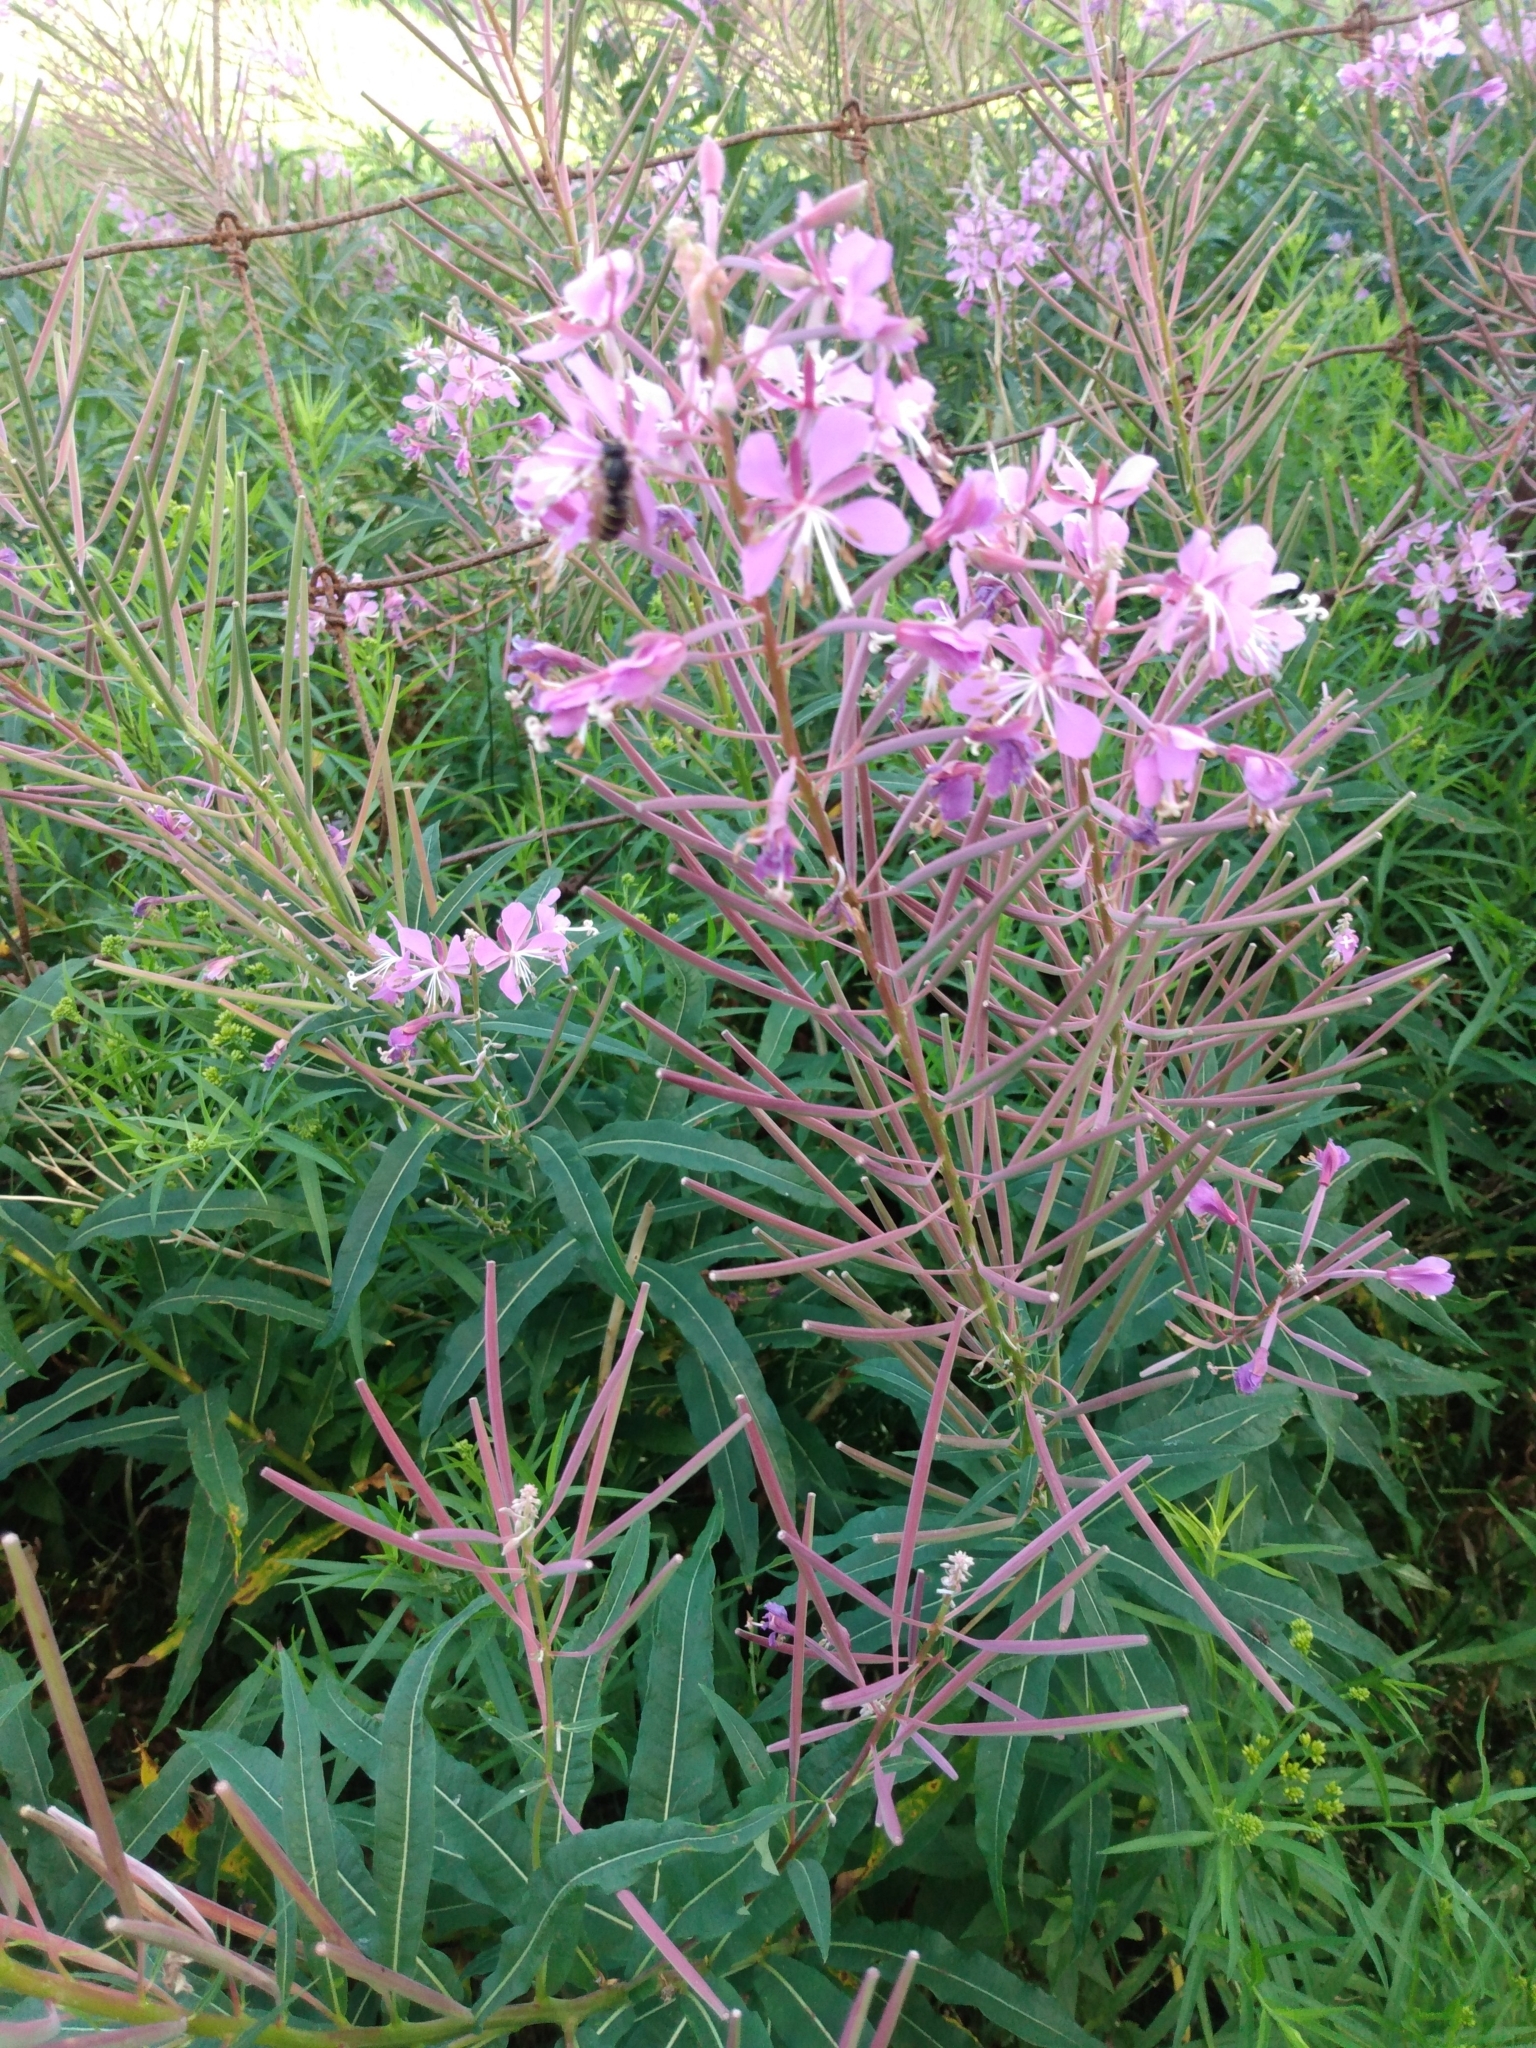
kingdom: Plantae
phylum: Tracheophyta
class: Magnoliopsida
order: Myrtales
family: Onagraceae
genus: Chamaenerion
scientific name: Chamaenerion angustifolium
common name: Fireweed
